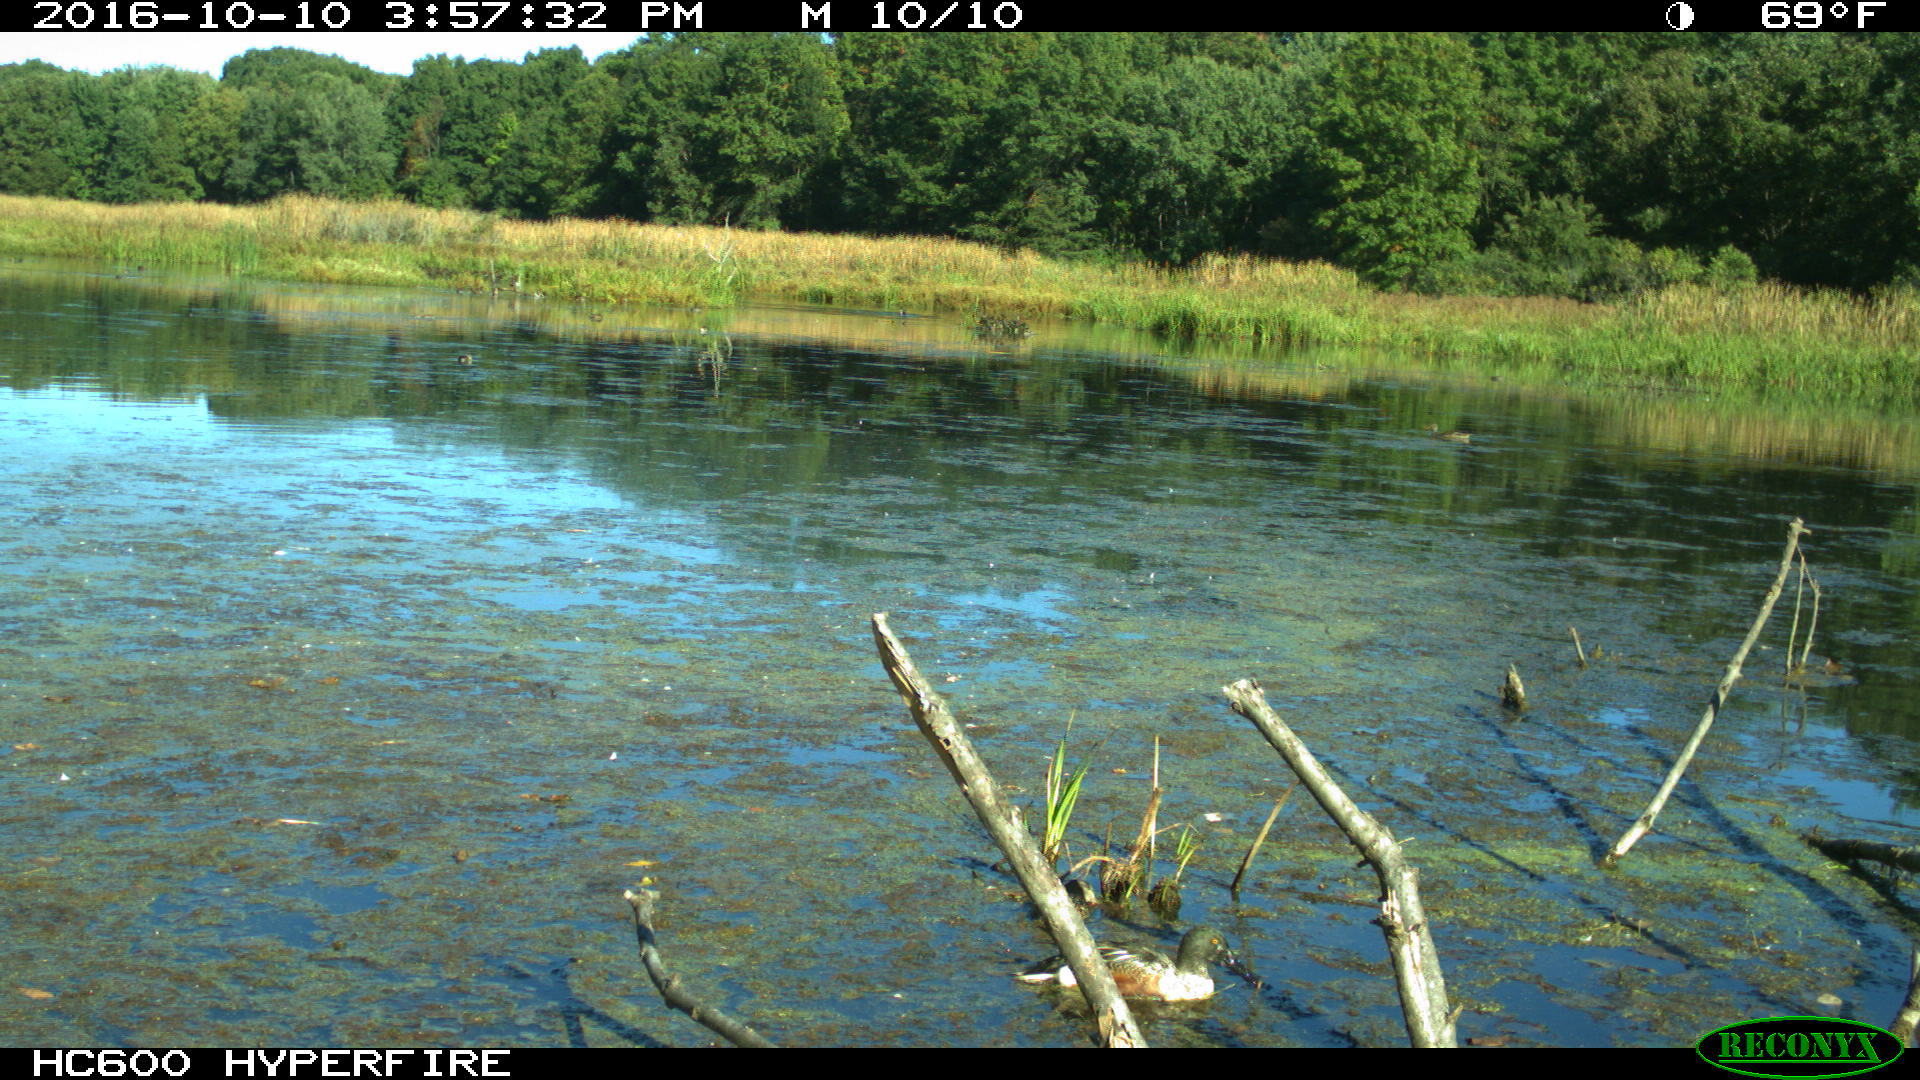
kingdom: Animalia
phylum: Chordata
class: Aves
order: Anseriformes
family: Anatidae
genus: Spatula
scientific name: Spatula clypeata
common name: Northern shoveler
